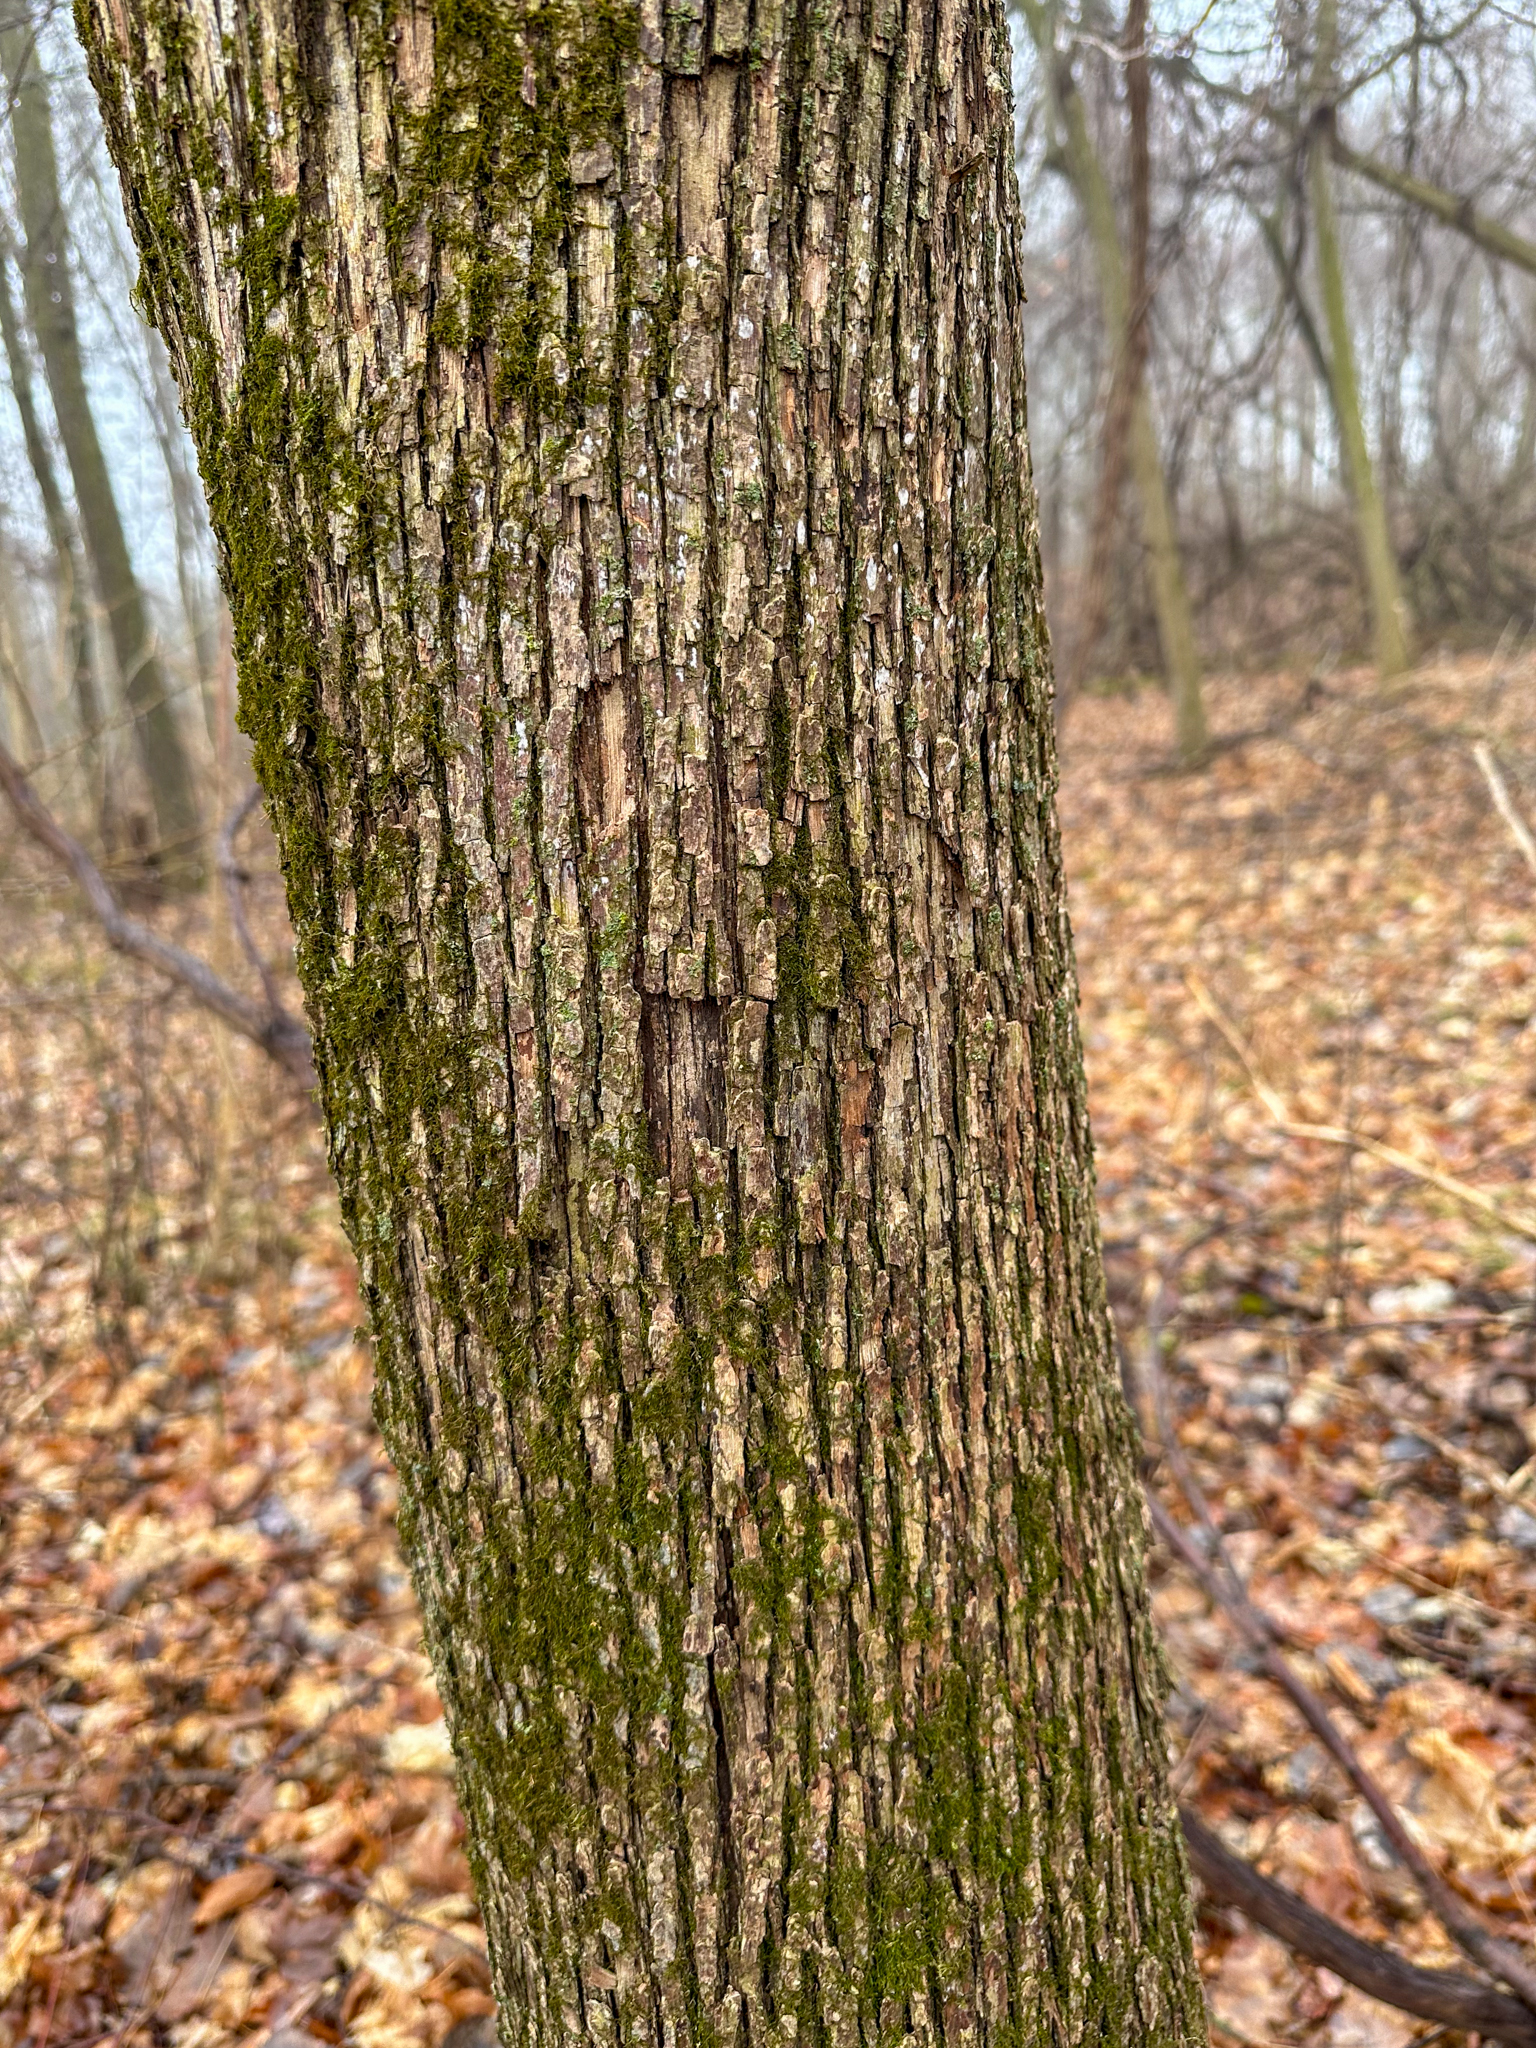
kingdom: Plantae
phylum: Tracheophyta
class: Magnoliopsida
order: Fagales
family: Betulaceae
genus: Ostrya
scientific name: Ostrya virginiana
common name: Ironwood
